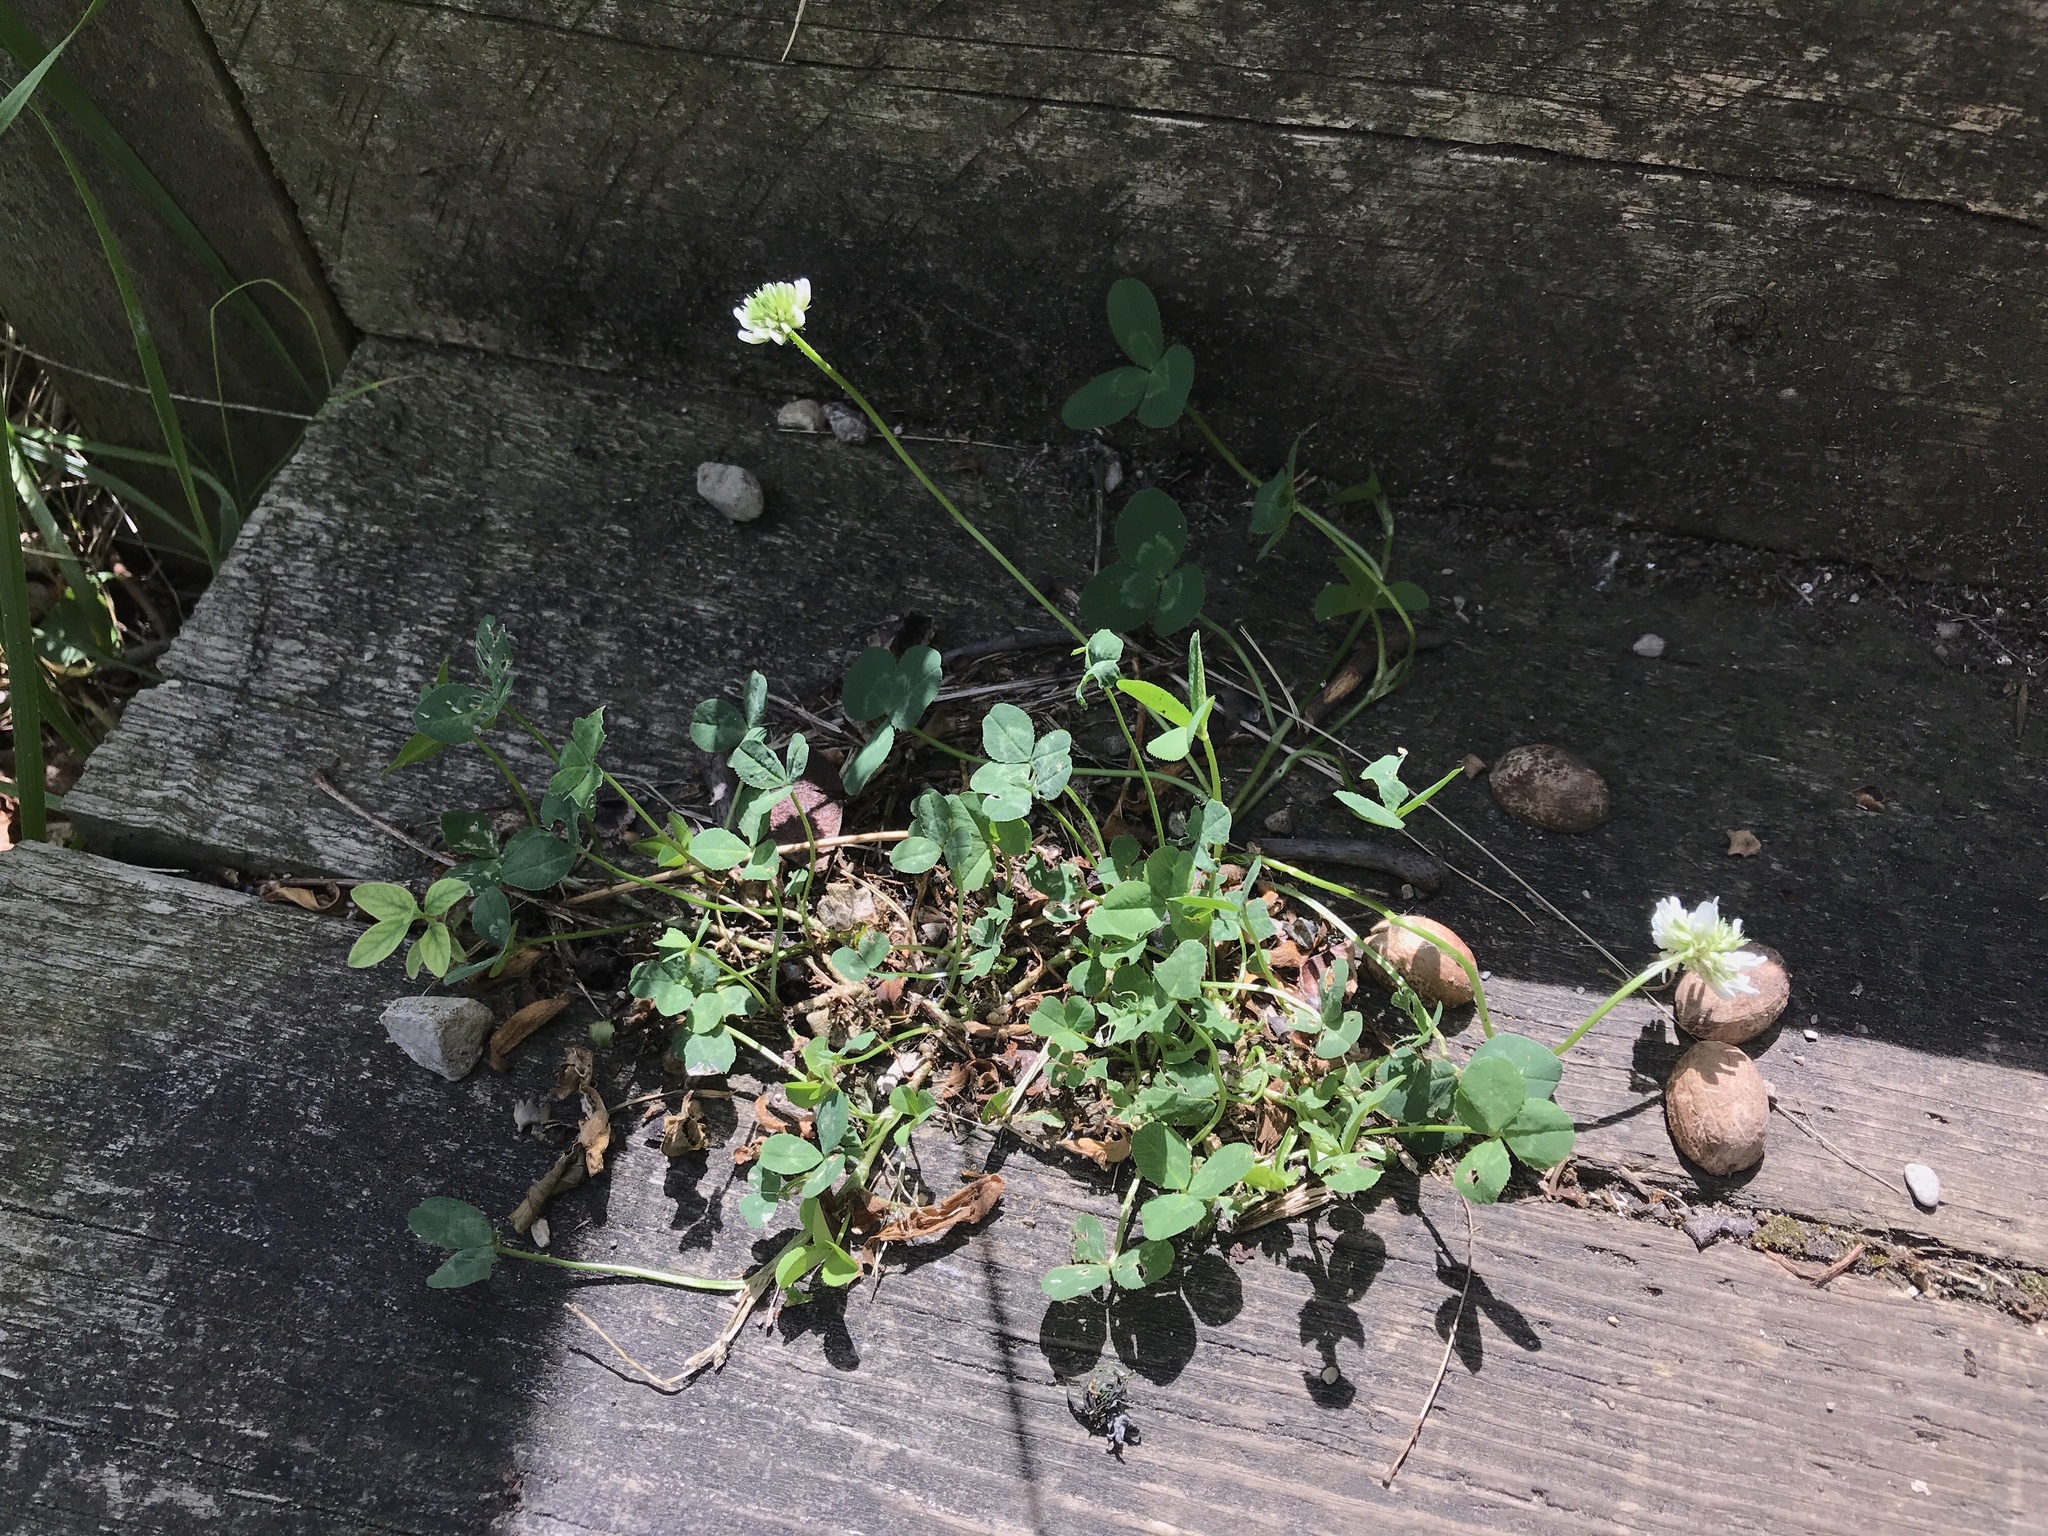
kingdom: Plantae
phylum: Tracheophyta
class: Magnoliopsida
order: Fabales
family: Fabaceae
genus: Trifolium
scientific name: Trifolium repens
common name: White clover
